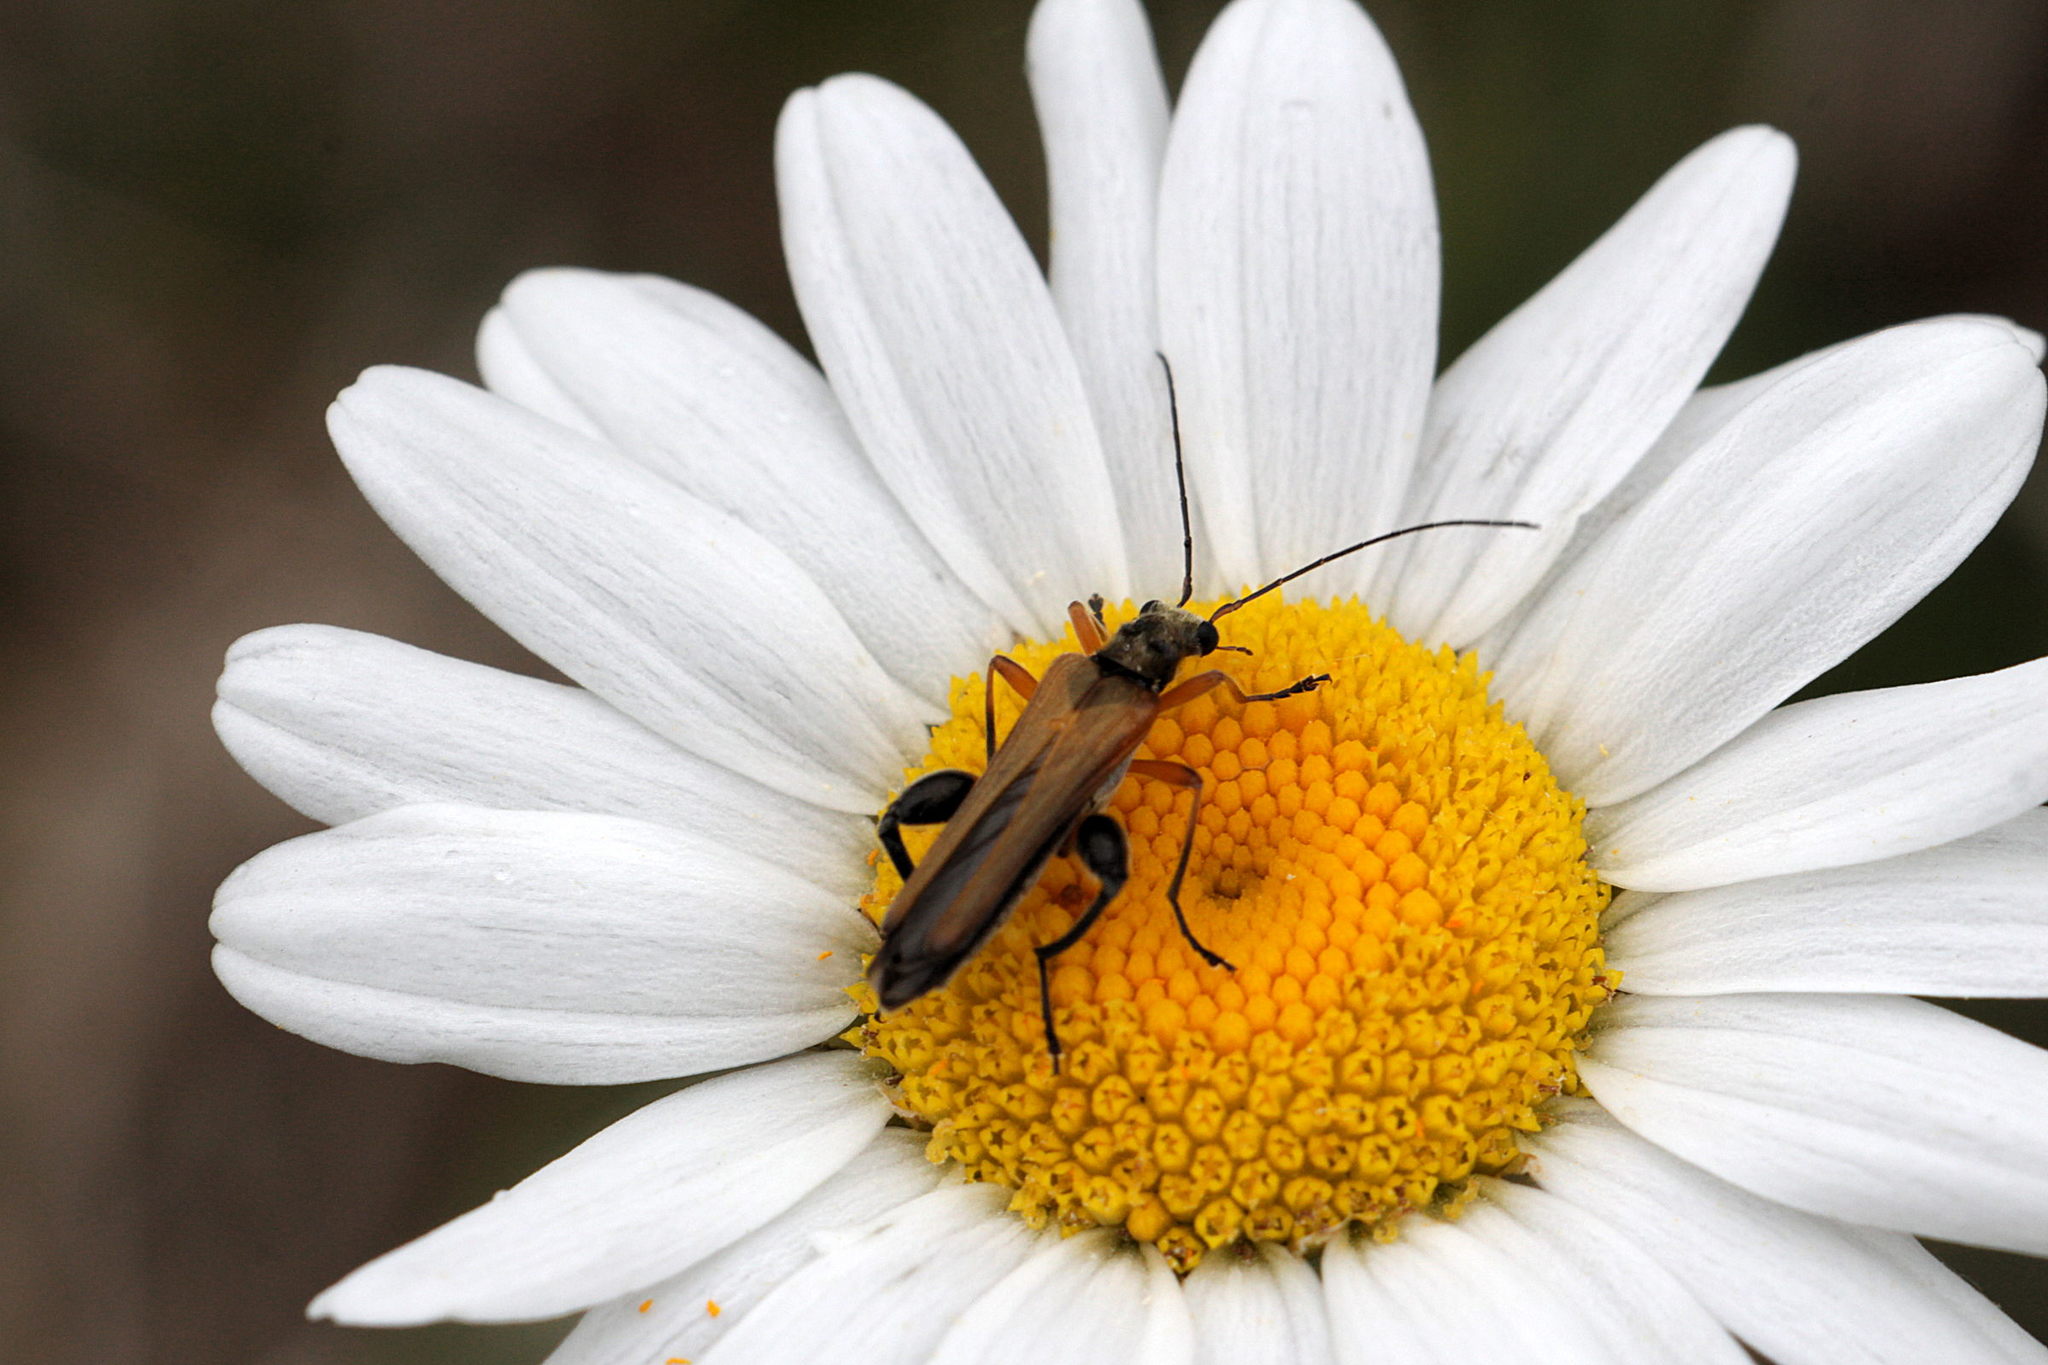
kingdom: Animalia
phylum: Arthropoda
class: Insecta
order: Coleoptera
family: Oedemeridae
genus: Oedemera
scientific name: Oedemera podagrariae
